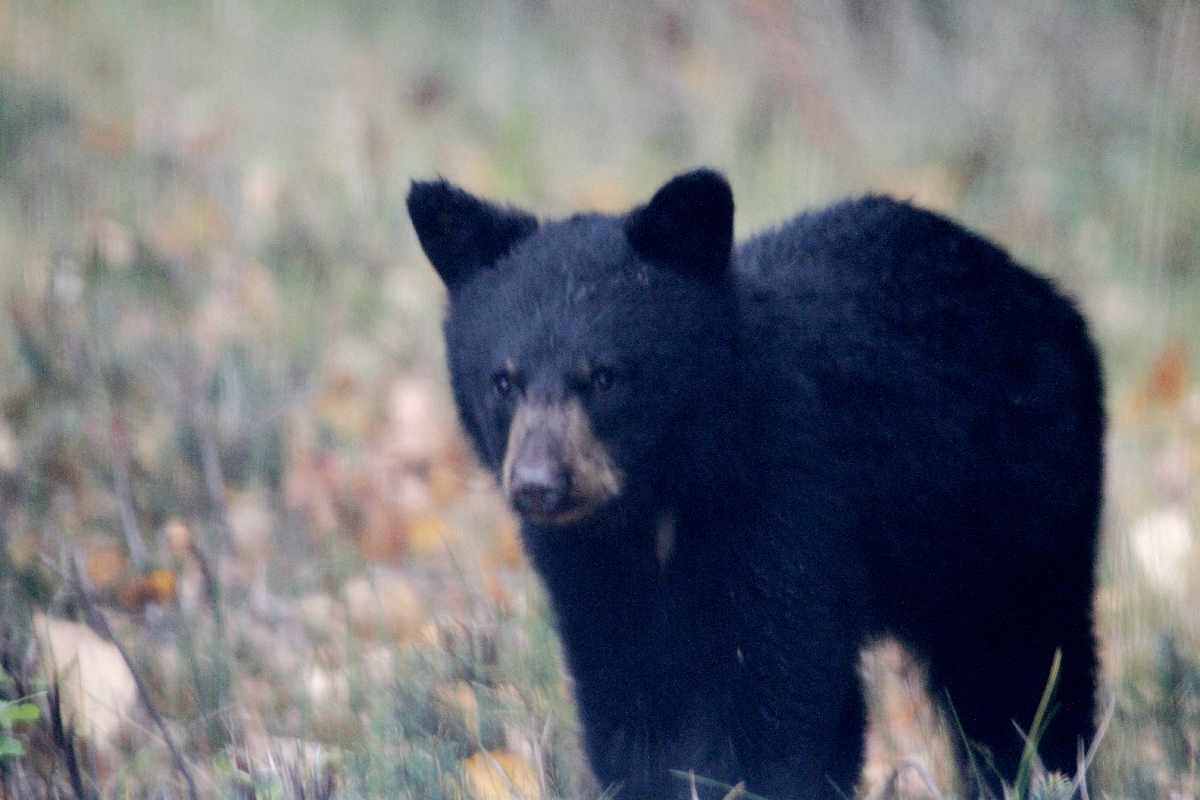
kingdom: Animalia
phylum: Chordata
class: Mammalia
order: Carnivora
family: Ursidae
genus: Ursus
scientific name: Ursus americanus
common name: American black bear
